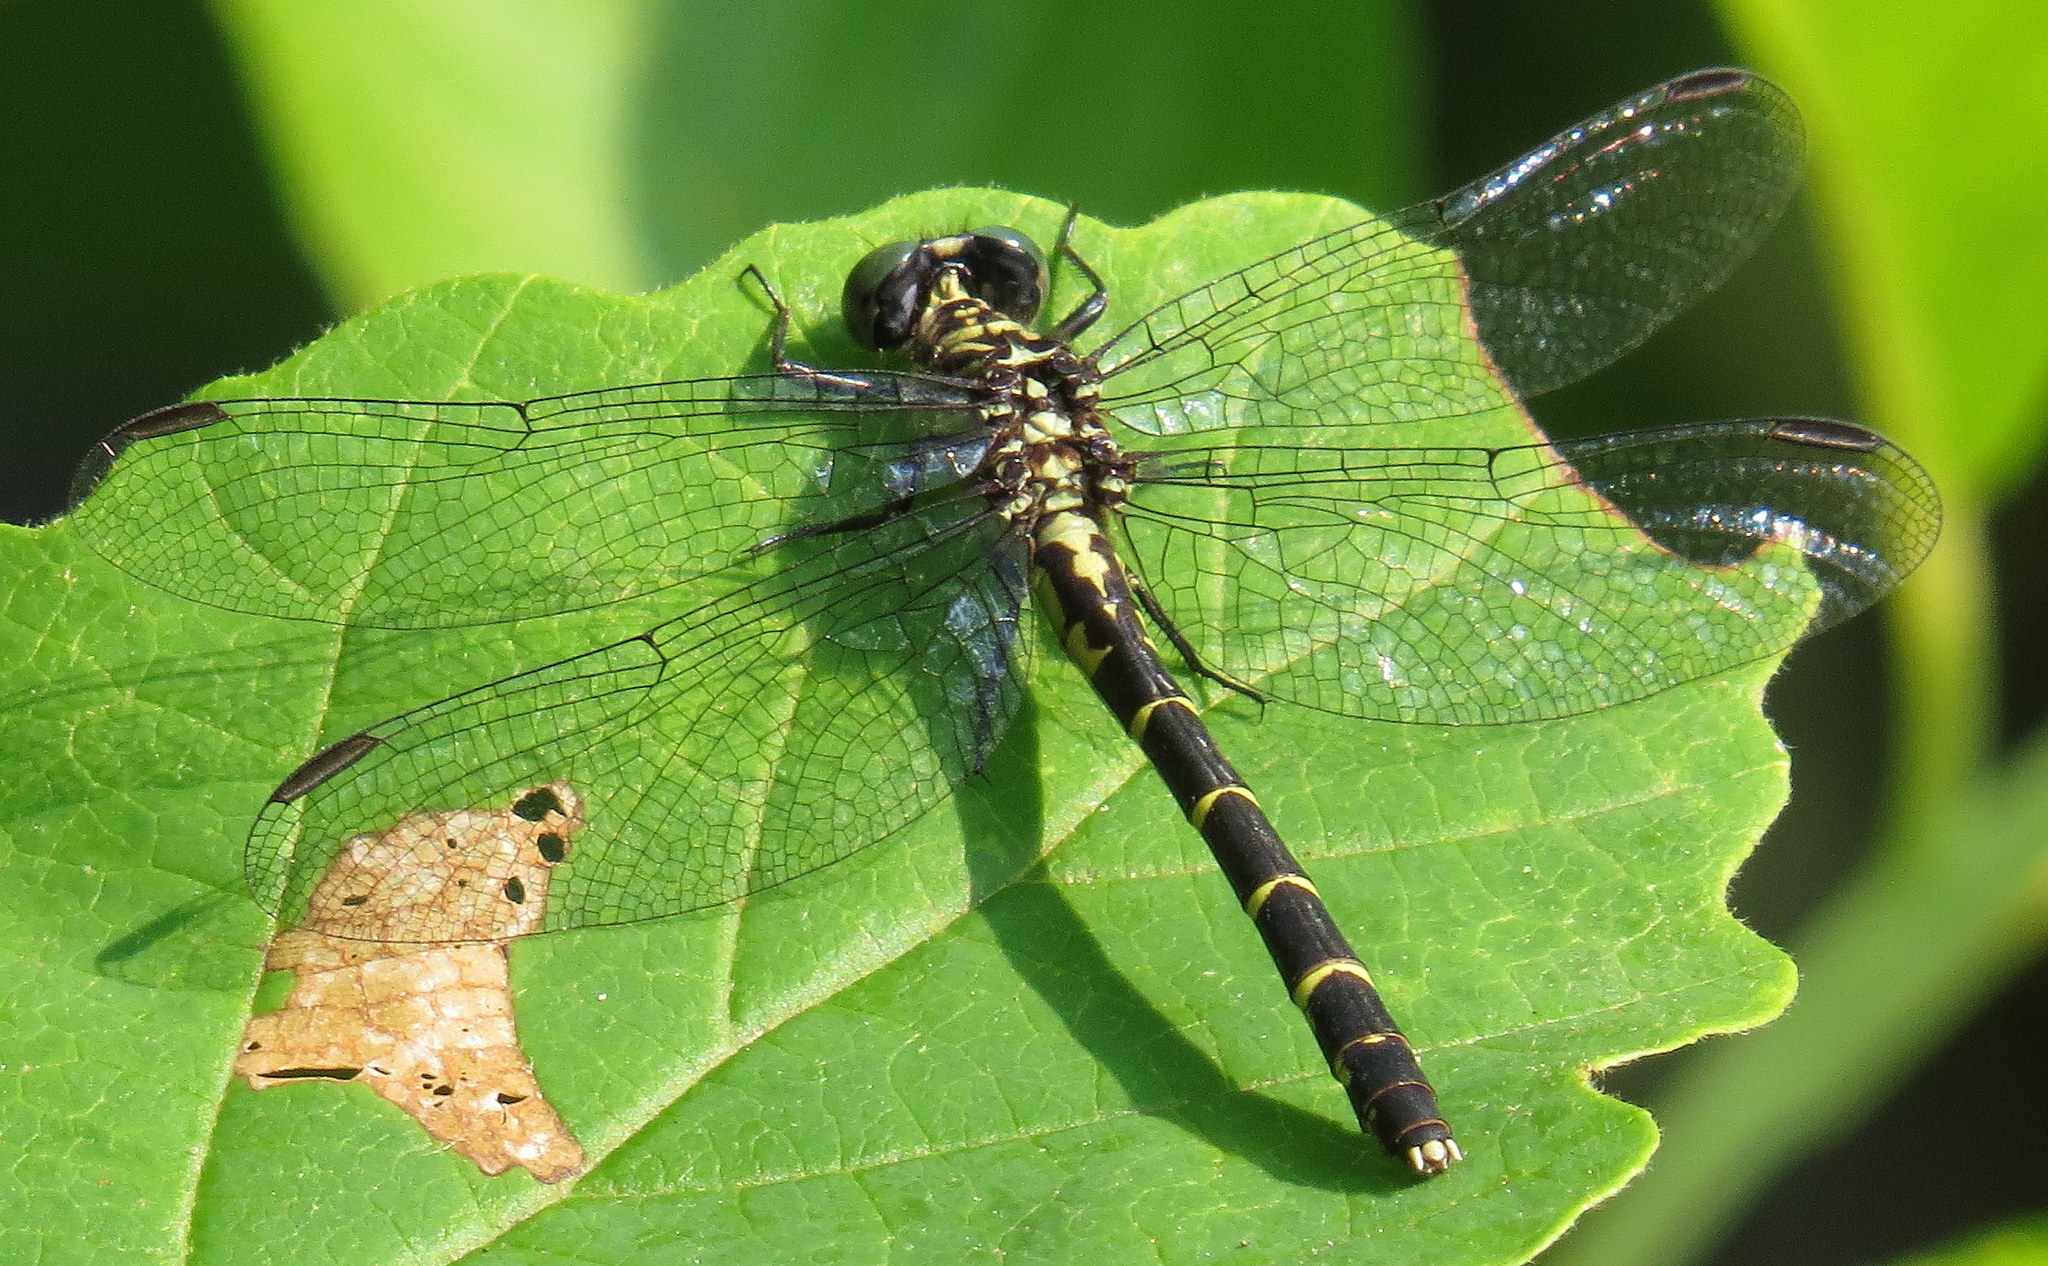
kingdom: Animalia
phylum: Arthropoda
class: Insecta
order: Odonata
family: Gomphidae
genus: Stylogomphus
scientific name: Stylogomphus albistylus
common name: Eastern least clubtail
